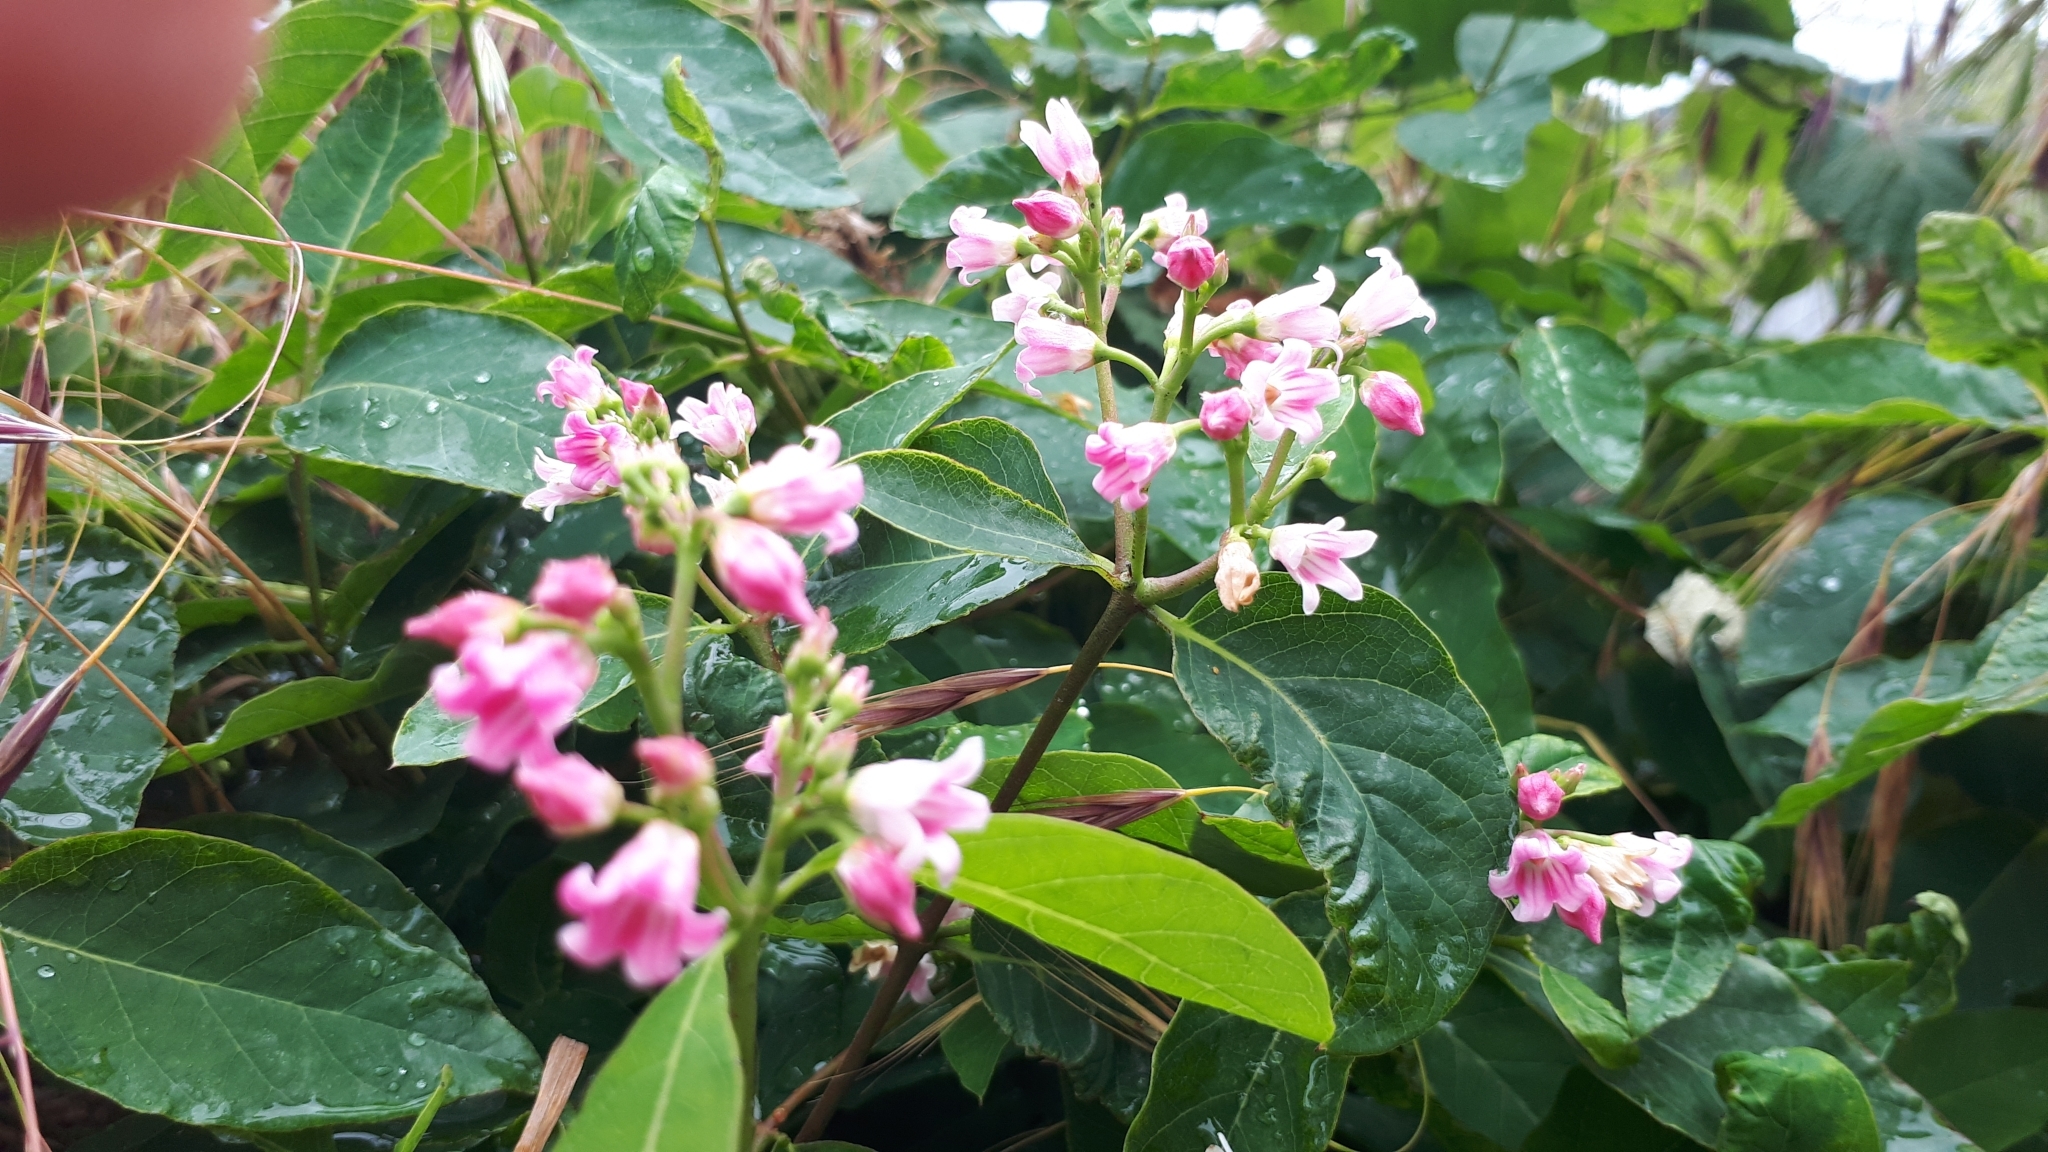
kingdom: Plantae
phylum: Tracheophyta
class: Magnoliopsida
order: Gentianales
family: Apocynaceae
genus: Apocynum
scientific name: Apocynum androsaemifolium
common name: Spreading dogbane
